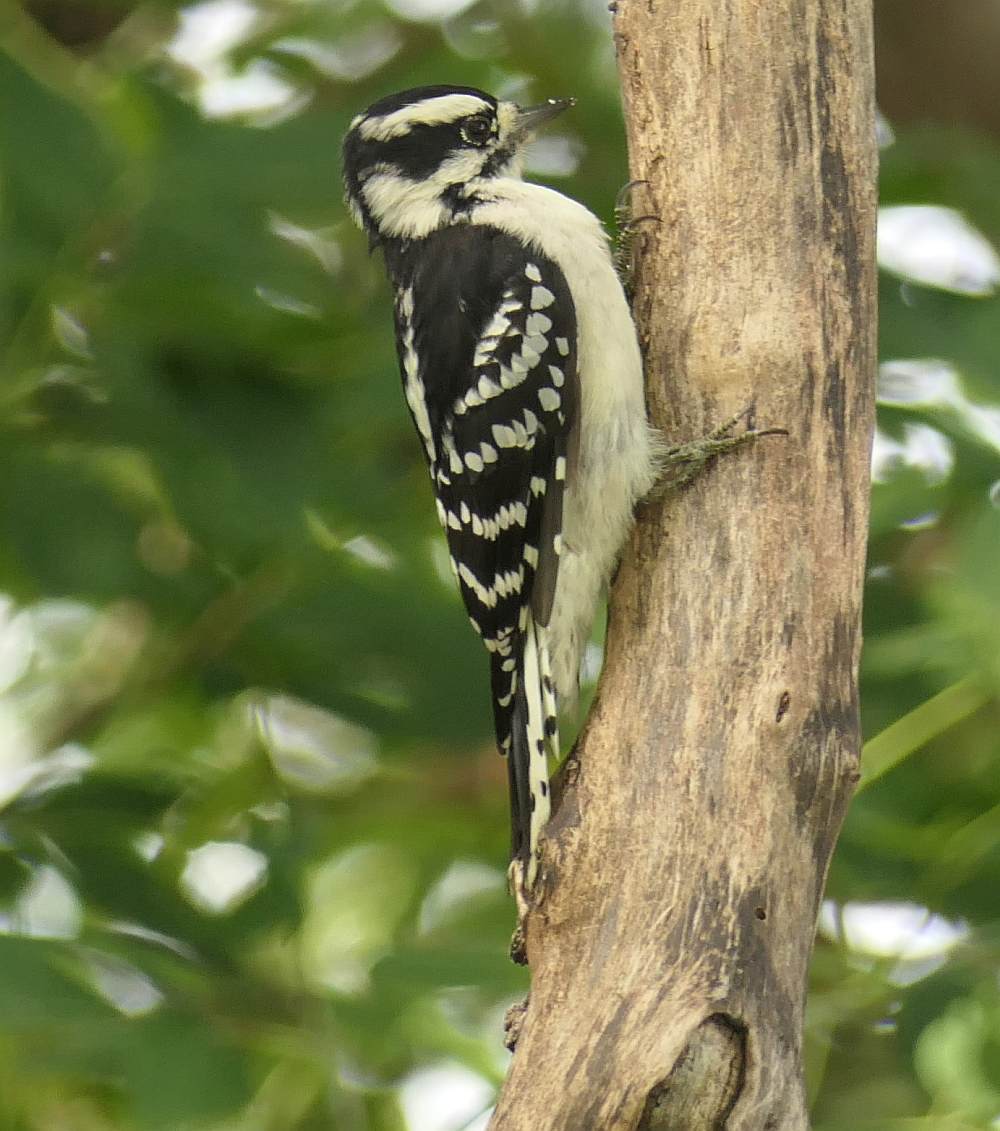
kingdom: Animalia
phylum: Chordata
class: Aves
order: Piciformes
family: Picidae
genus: Dryobates
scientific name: Dryobates pubescens
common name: Downy woodpecker
